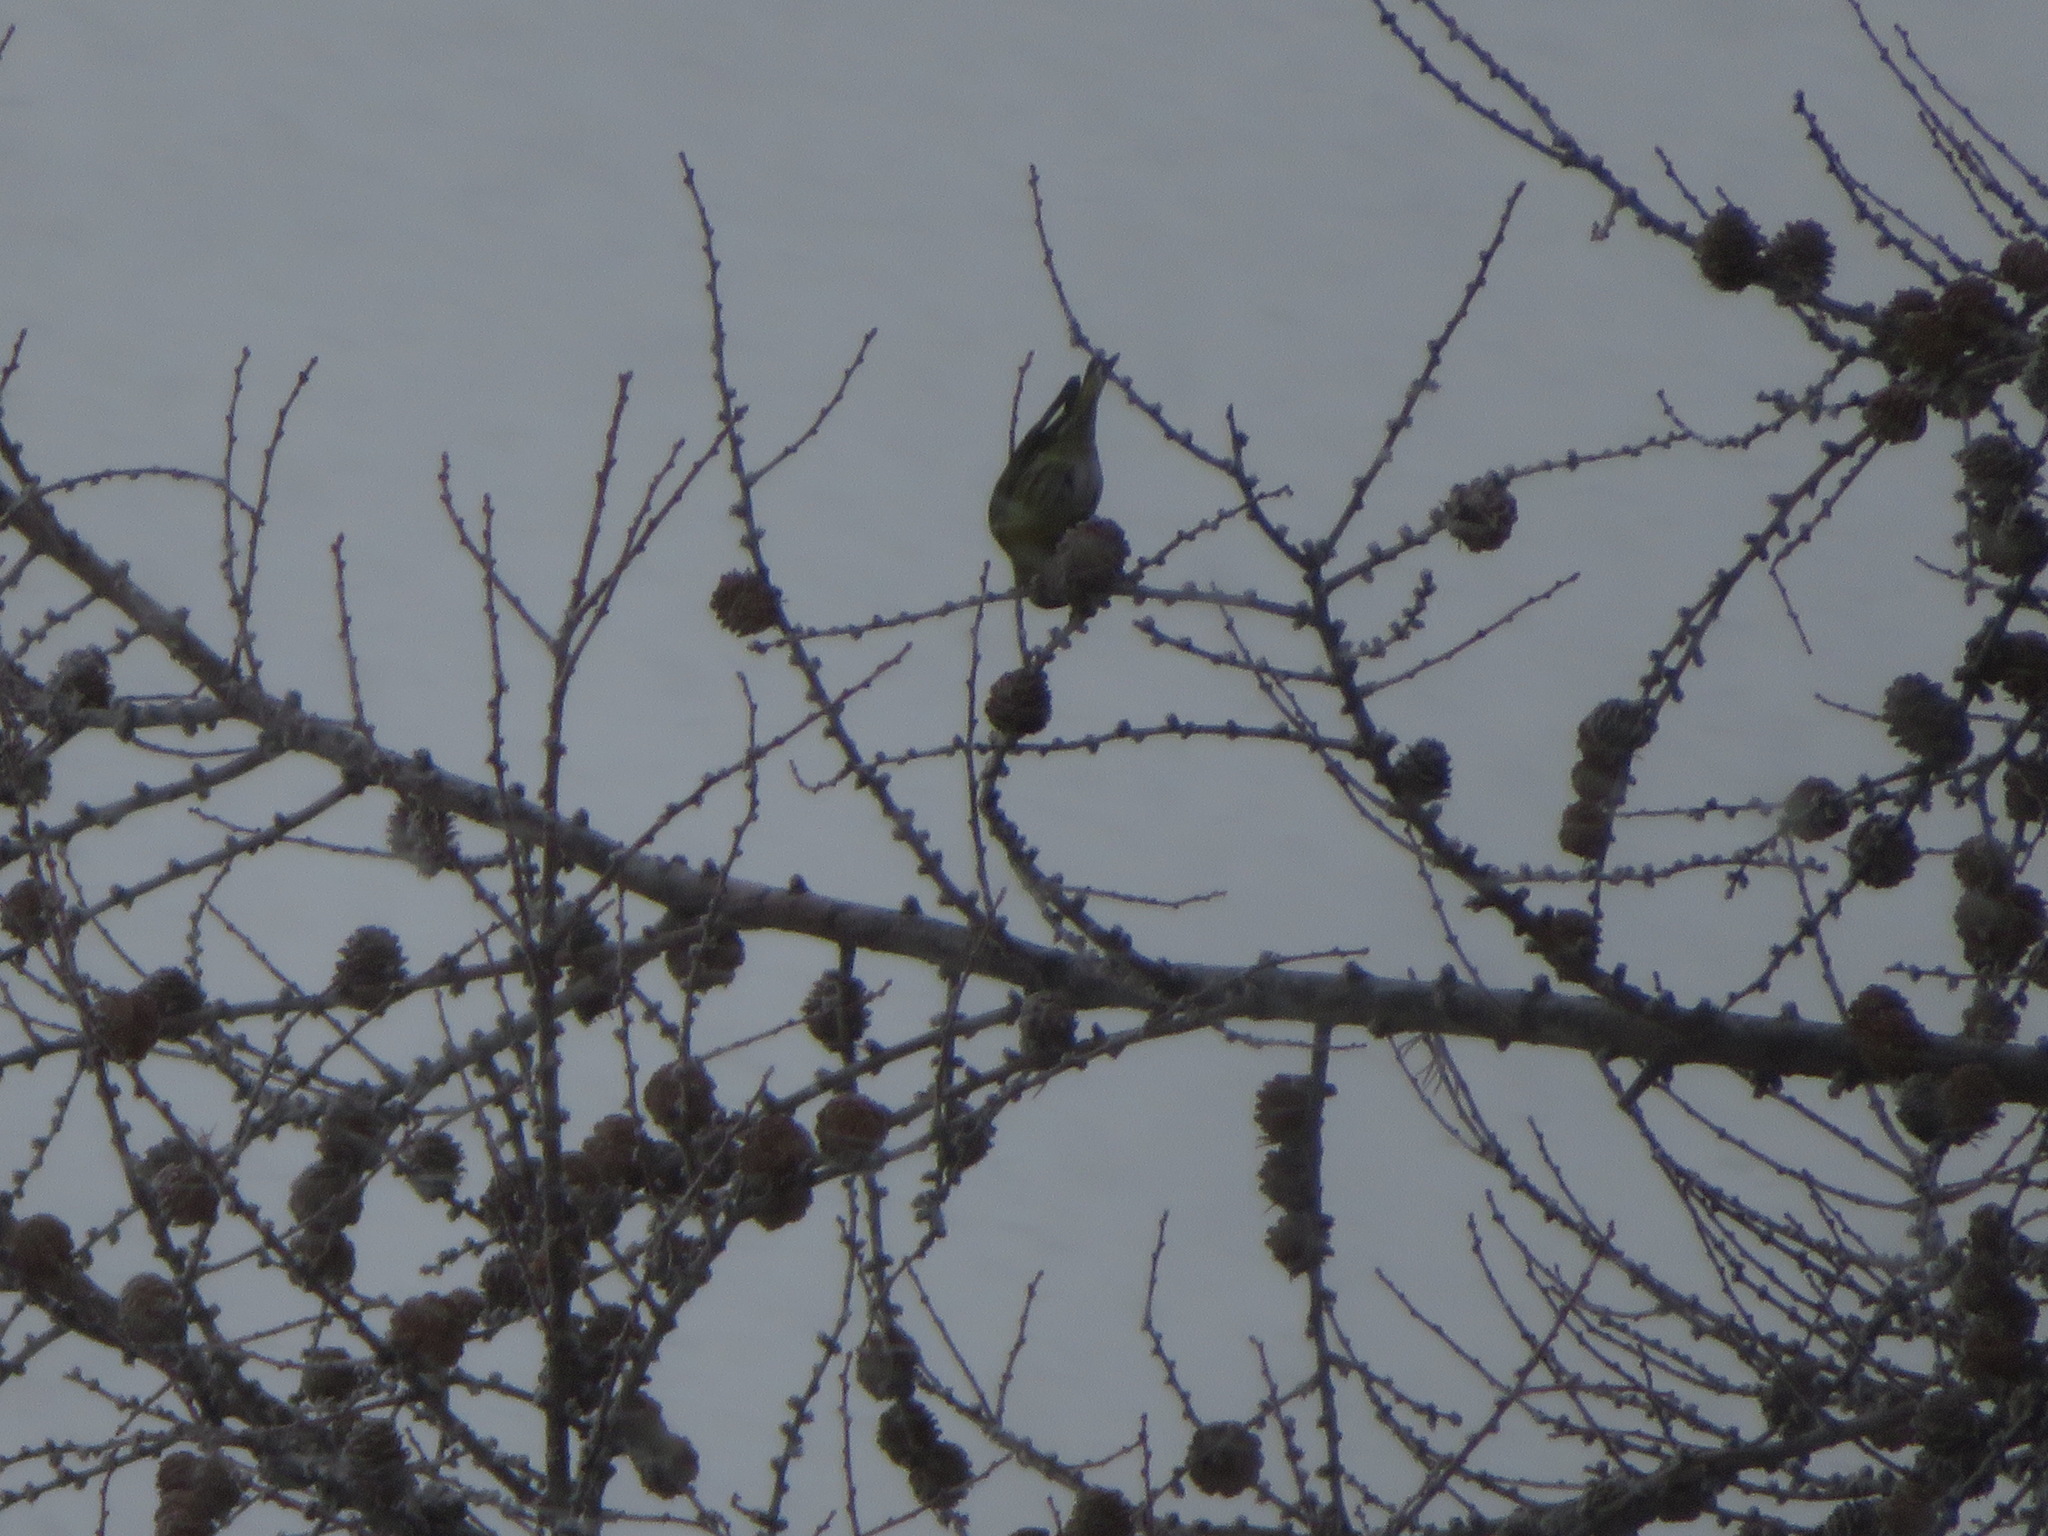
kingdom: Animalia
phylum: Chordata
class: Aves
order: Passeriformes
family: Fringillidae
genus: Spinus
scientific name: Spinus spinus
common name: Eurasian siskin
